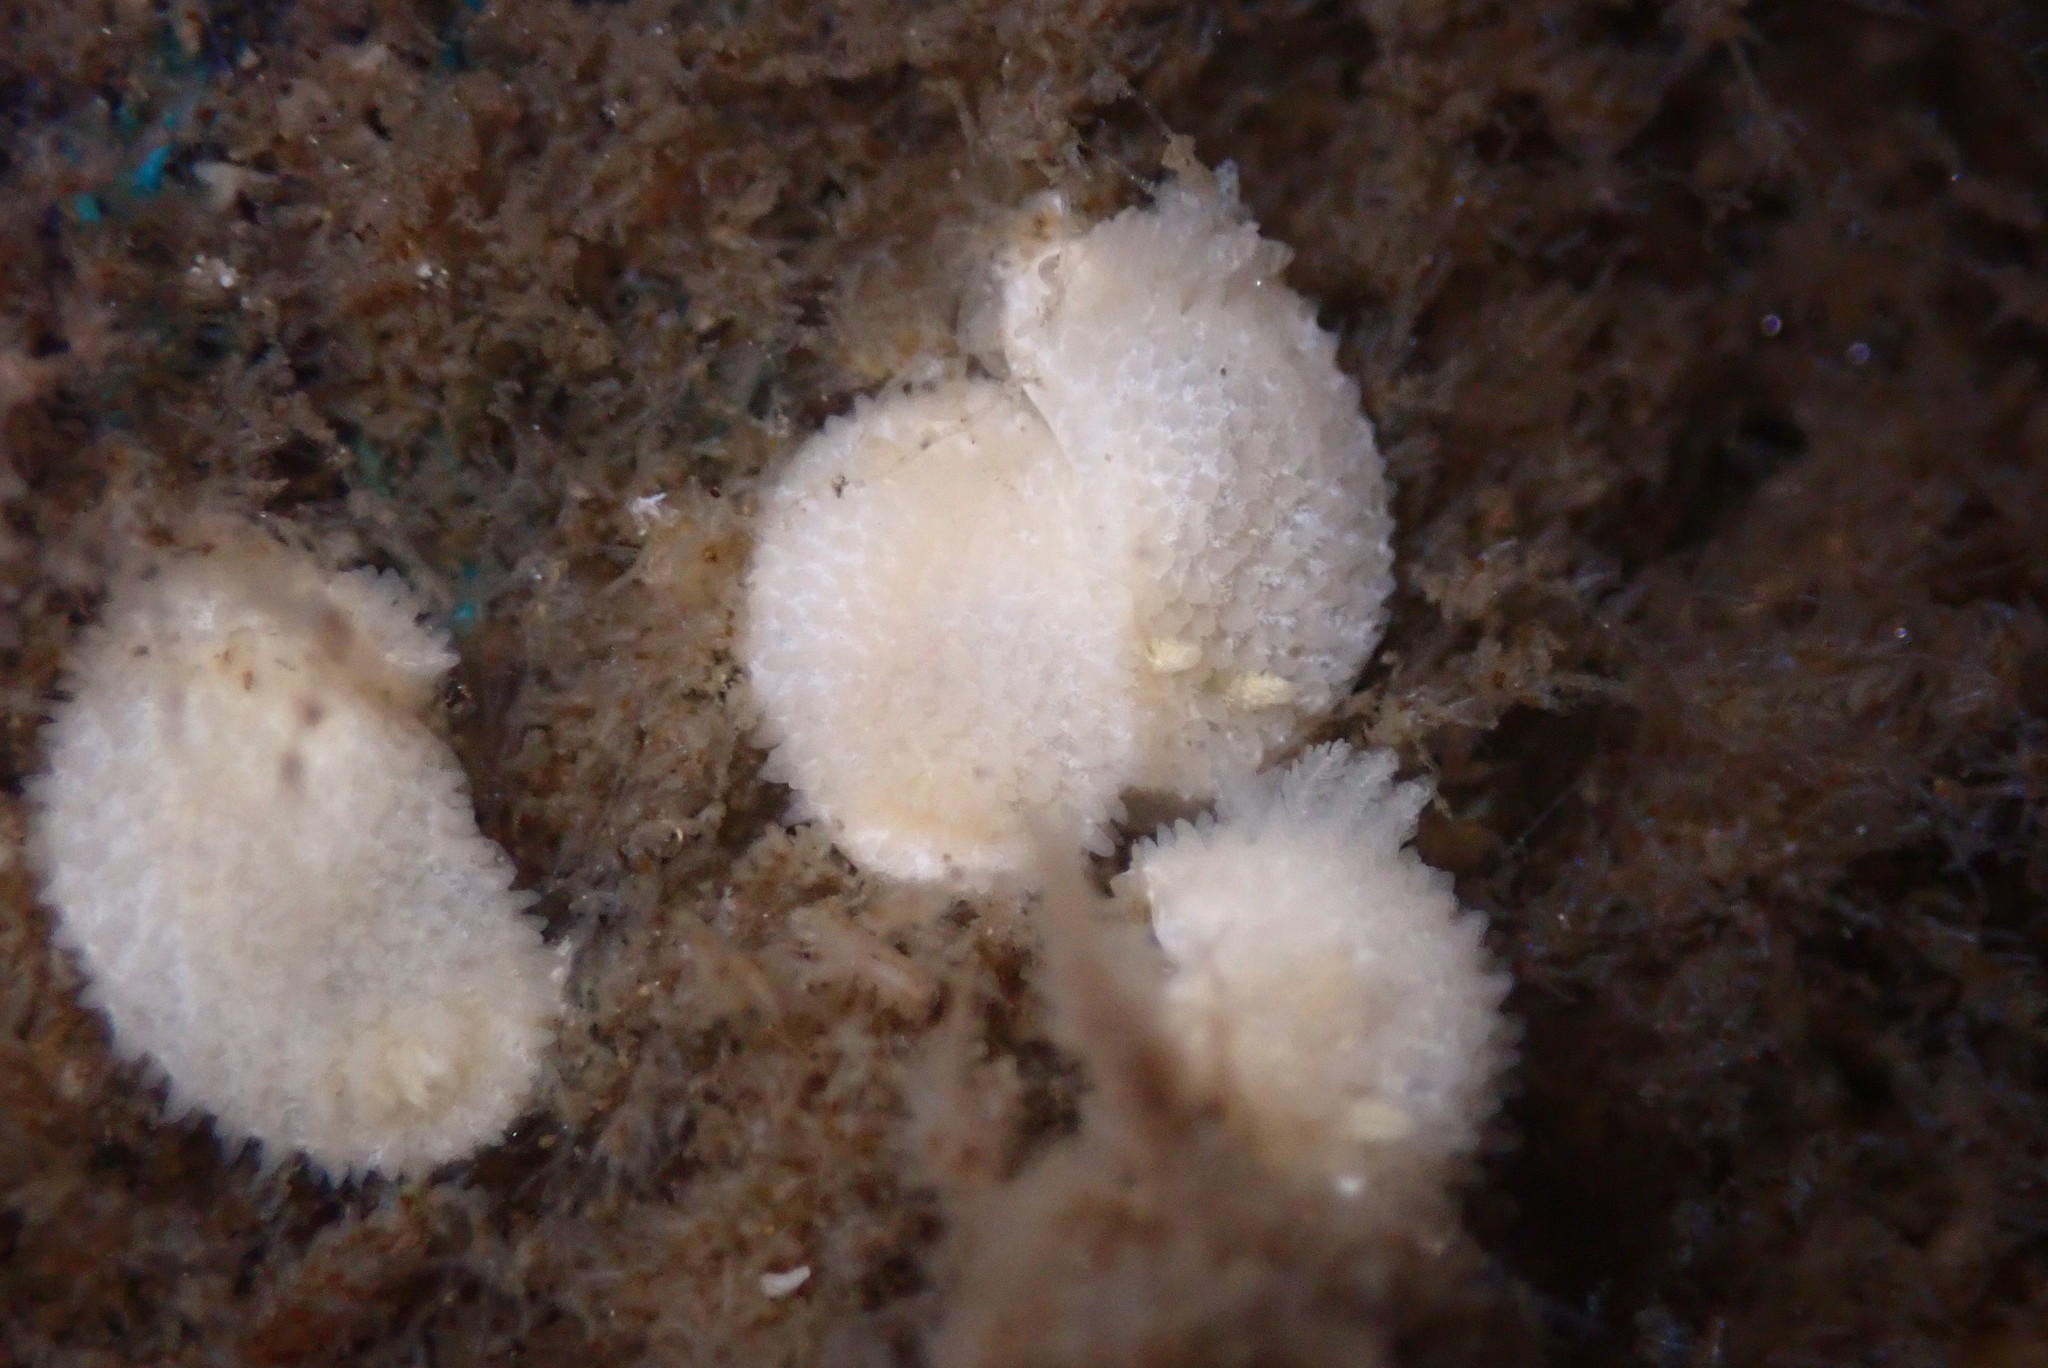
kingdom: Animalia
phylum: Mollusca
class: Gastropoda
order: Nudibranchia
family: Calycidorididae
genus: Diaphorodoris
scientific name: Diaphorodoris lirulatocauda
